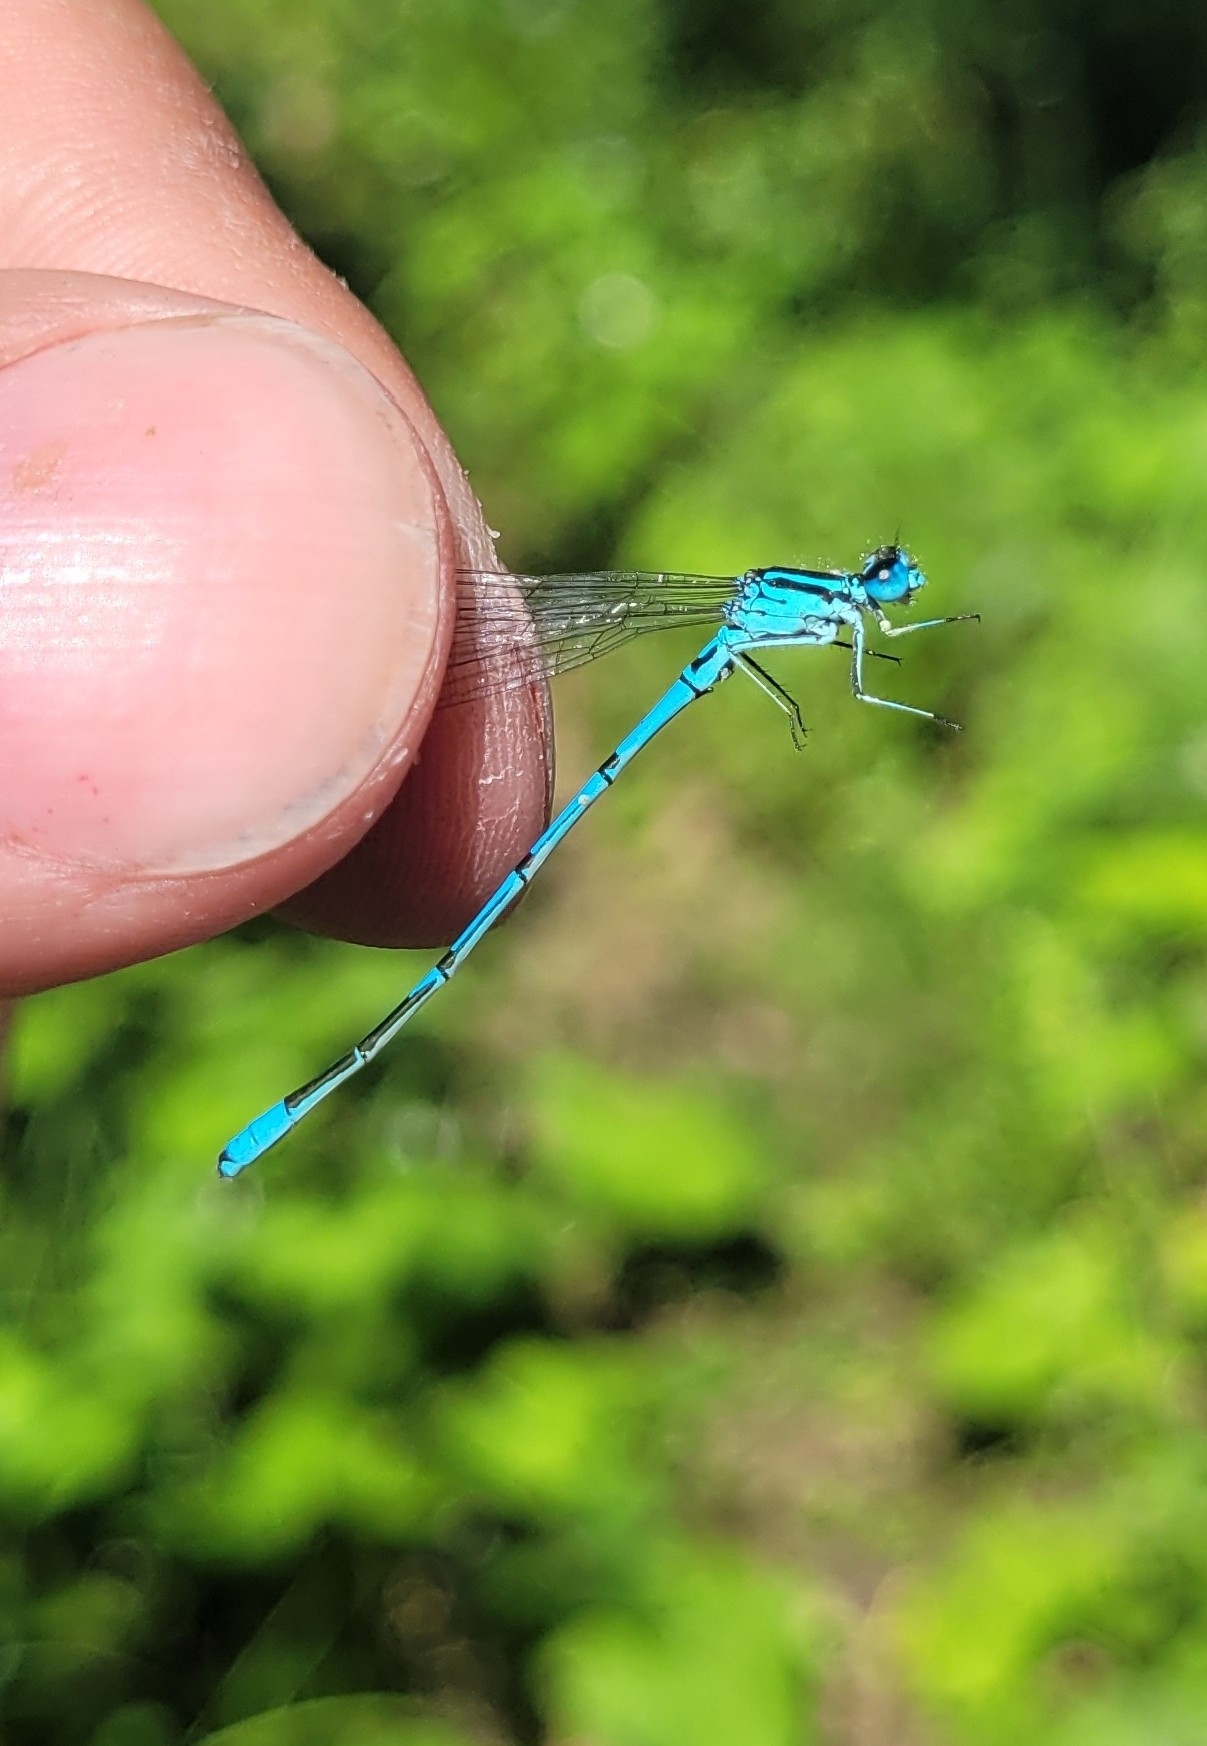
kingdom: Animalia
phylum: Arthropoda
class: Insecta
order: Odonata
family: Coenagrionidae
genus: Coenagrion
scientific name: Coenagrion puella
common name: Azure damselfly
